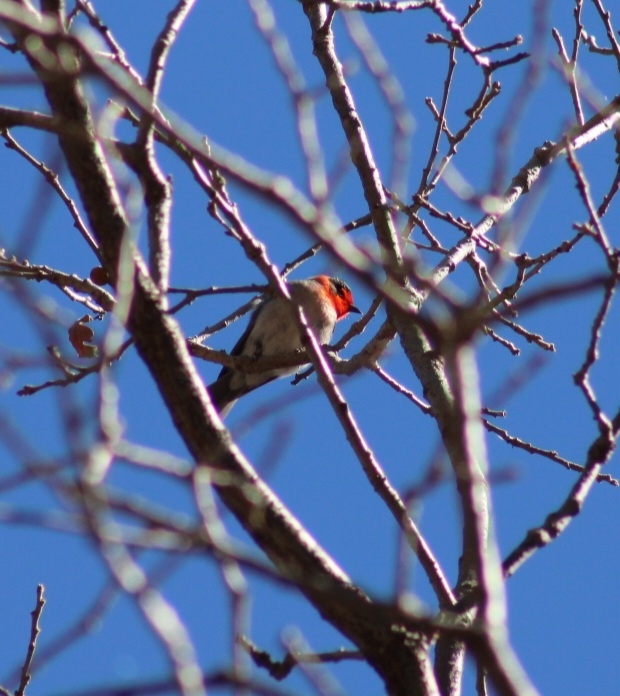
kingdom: Animalia
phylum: Chordata
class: Aves
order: Passeriformes
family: Parulidae
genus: Cardellina
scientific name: Cardellina rubrifrons
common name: Red-faced warbler
